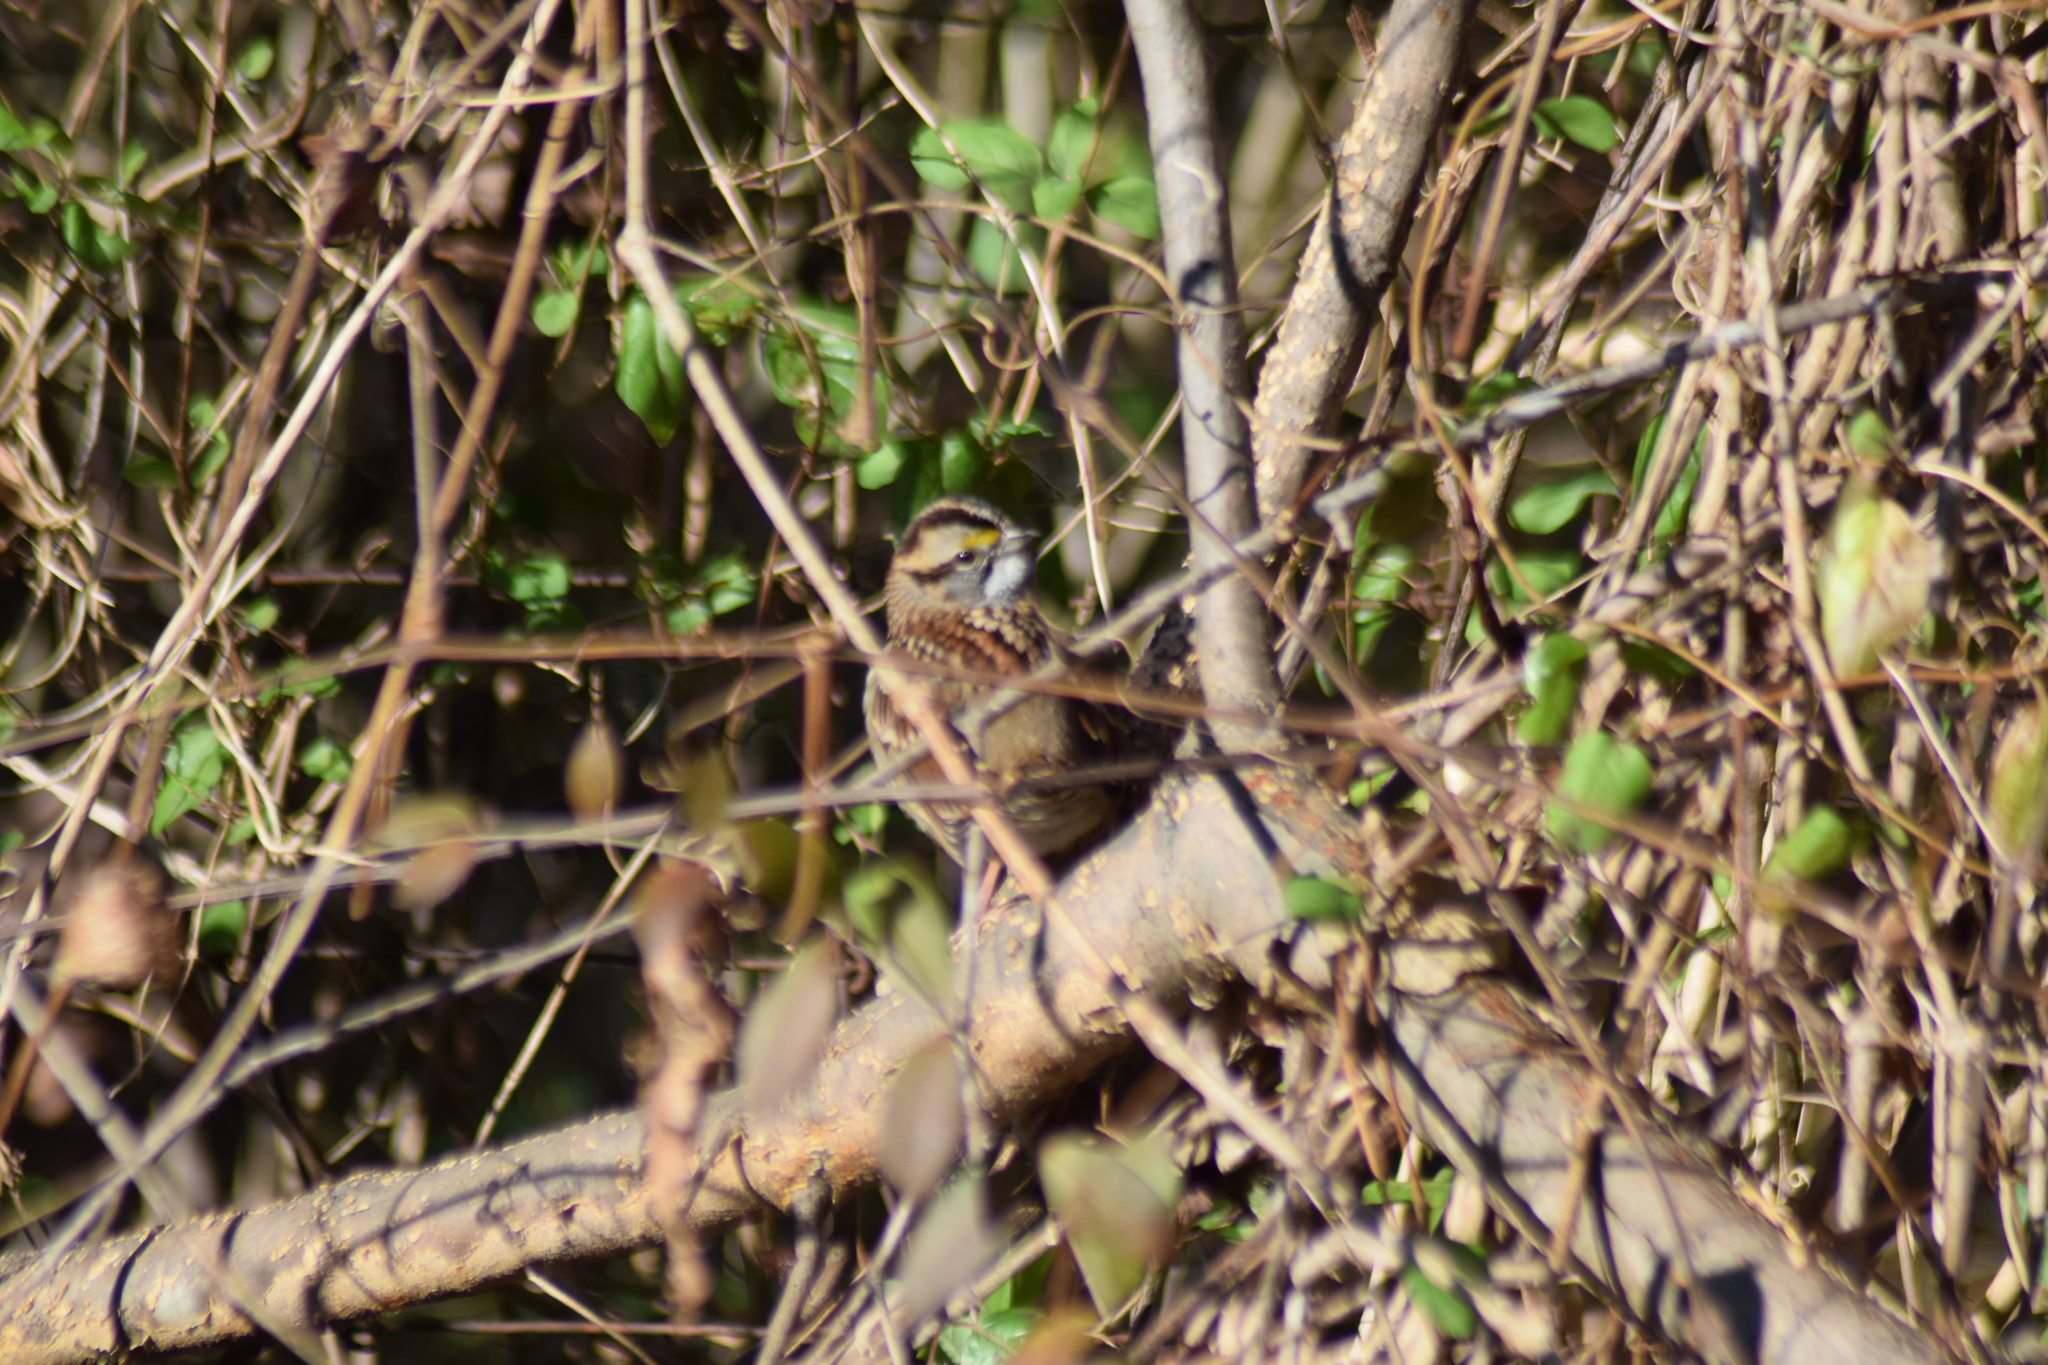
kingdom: Animalia
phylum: Chordata
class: Aves
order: Passeriformes
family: Passerellidae
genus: Zonotrichia
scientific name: Zonotrichia albicollis
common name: White-throated sparrow
